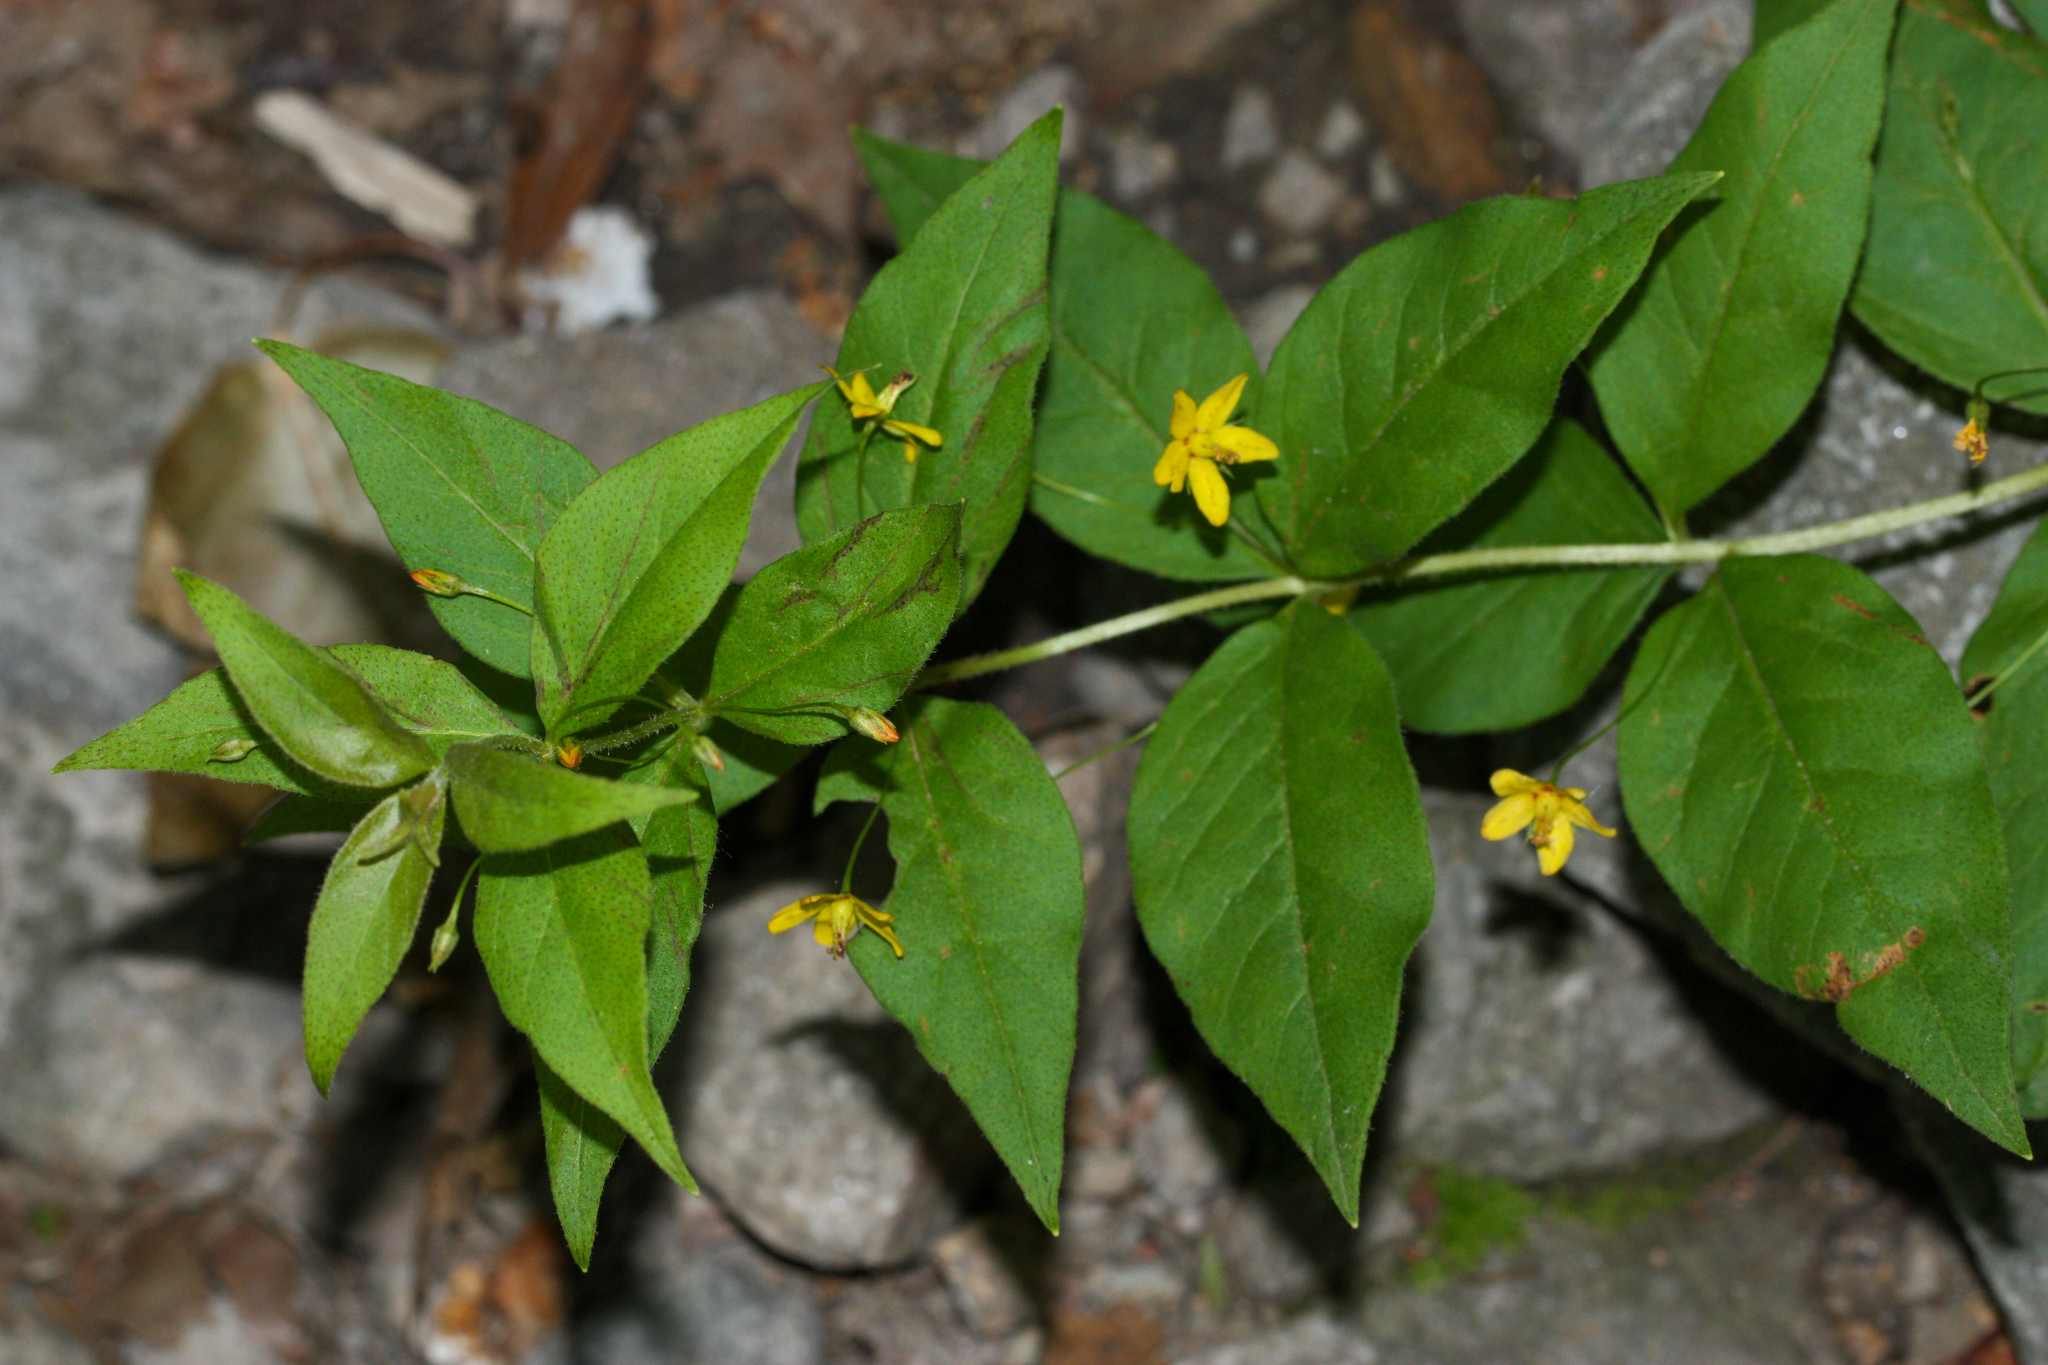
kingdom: Plantae
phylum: Tracheophyta
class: Magnoliopsida
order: Ericales
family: Primulaceae
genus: Lysimachia
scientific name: Lysimachia quadrifolia
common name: Whorled loosestrife
